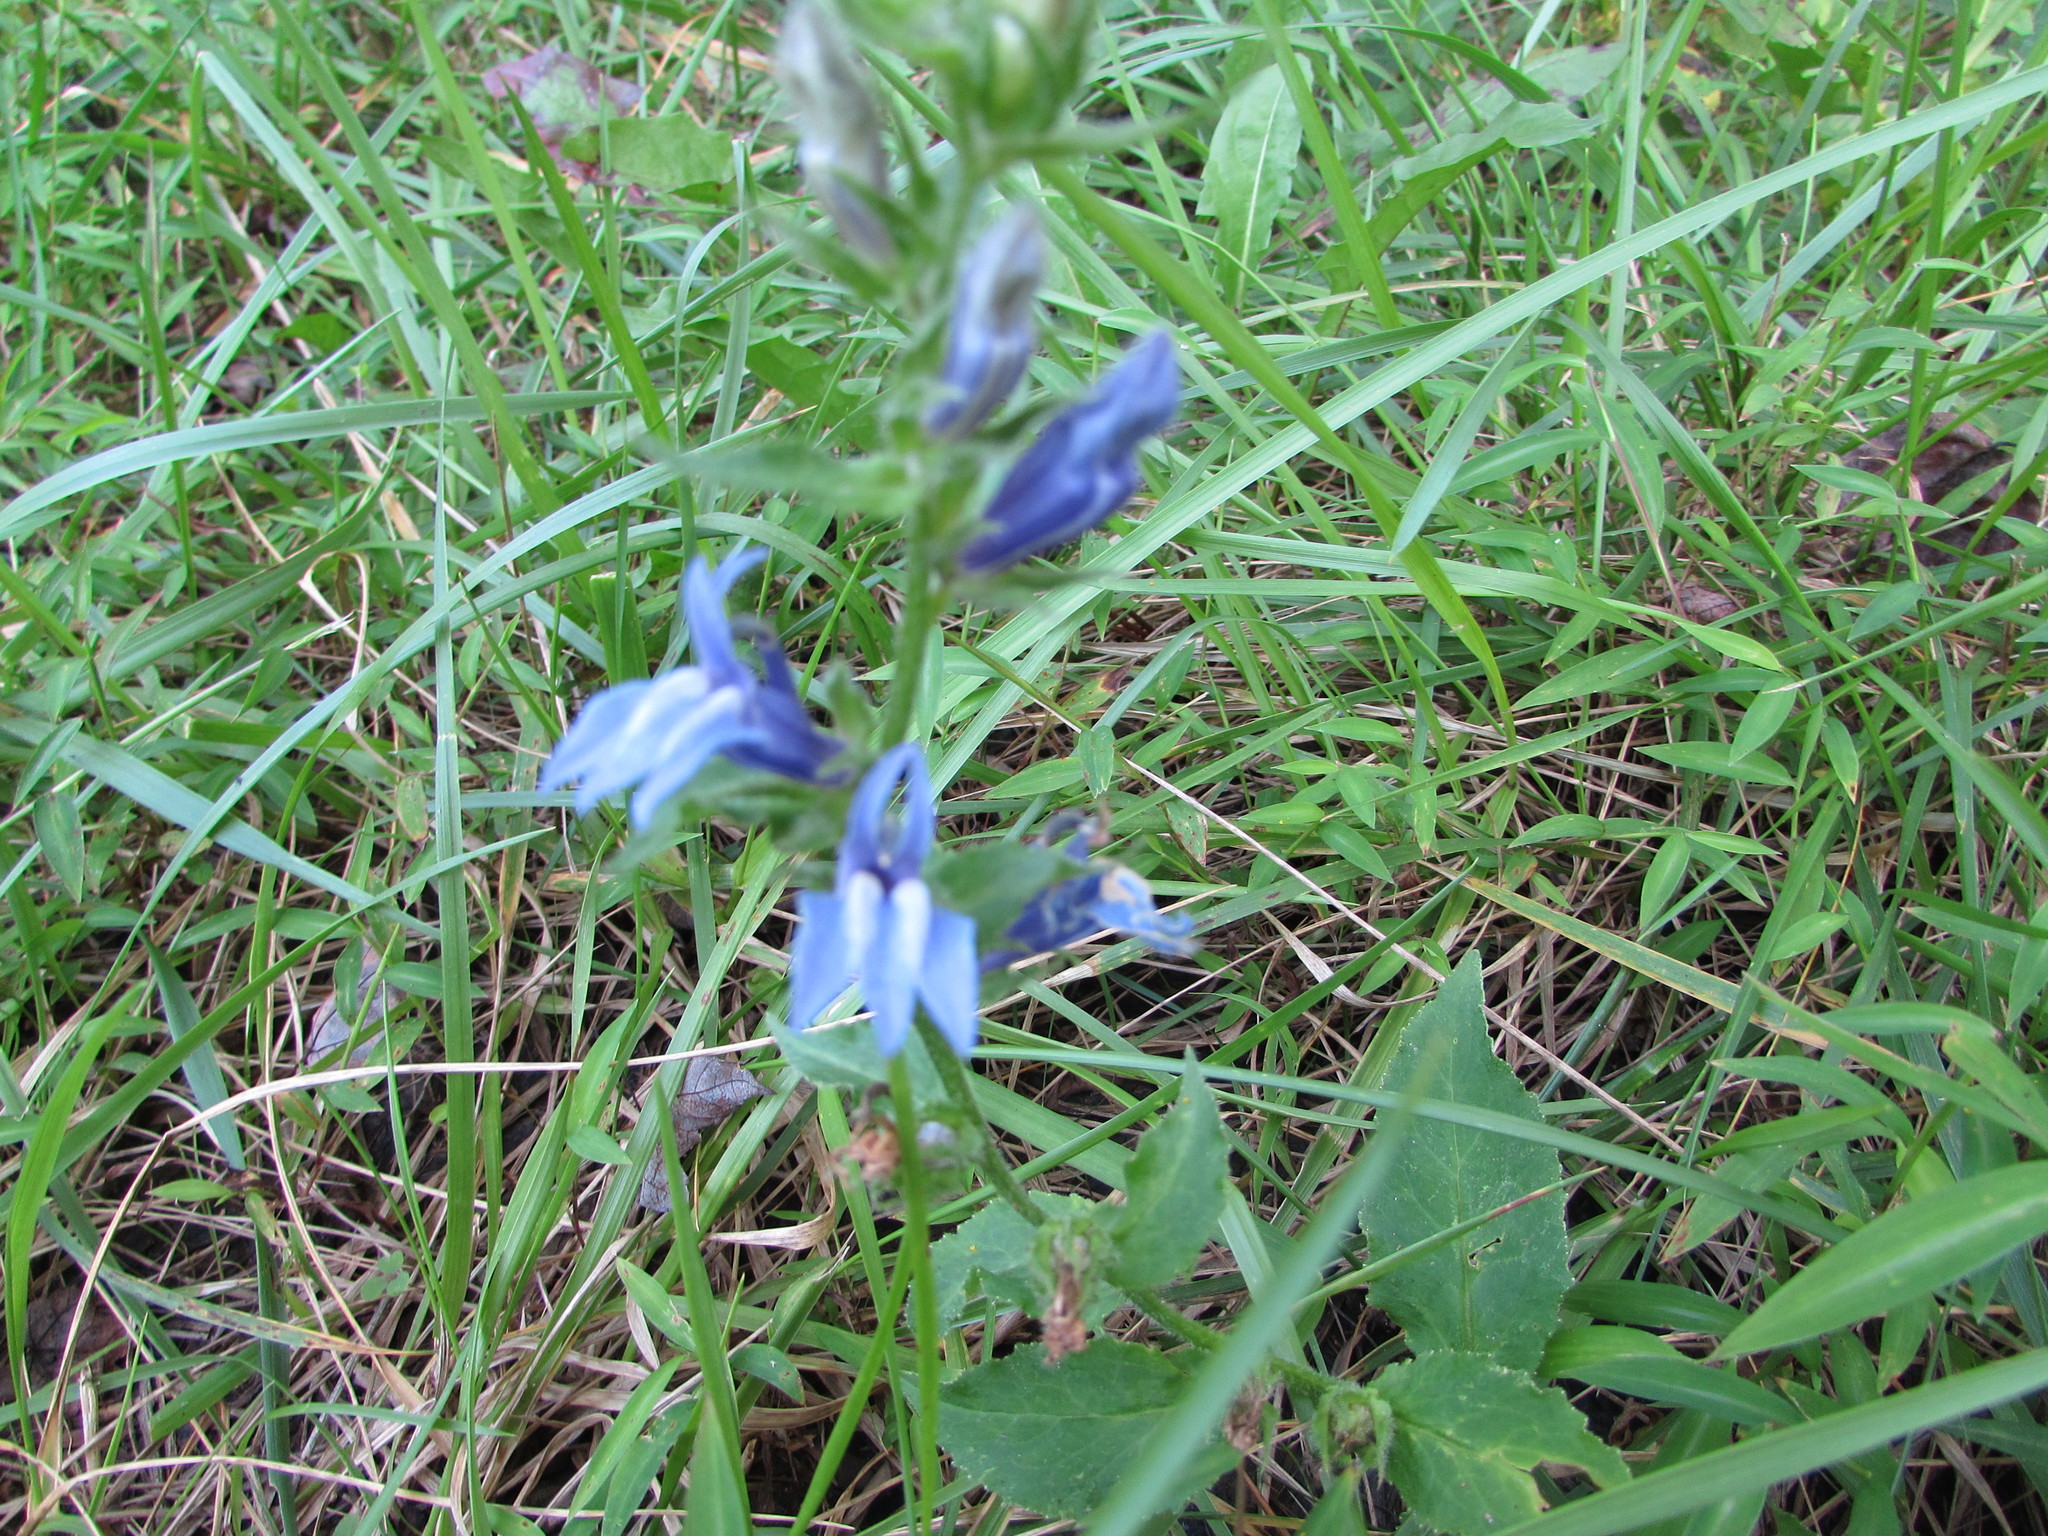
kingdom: Plantae
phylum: Tracheophyta
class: Magnoliopsida
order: Asterales
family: Campanulaceae
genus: Lobelia
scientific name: Lobelia siphilitica
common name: Great lobelia
